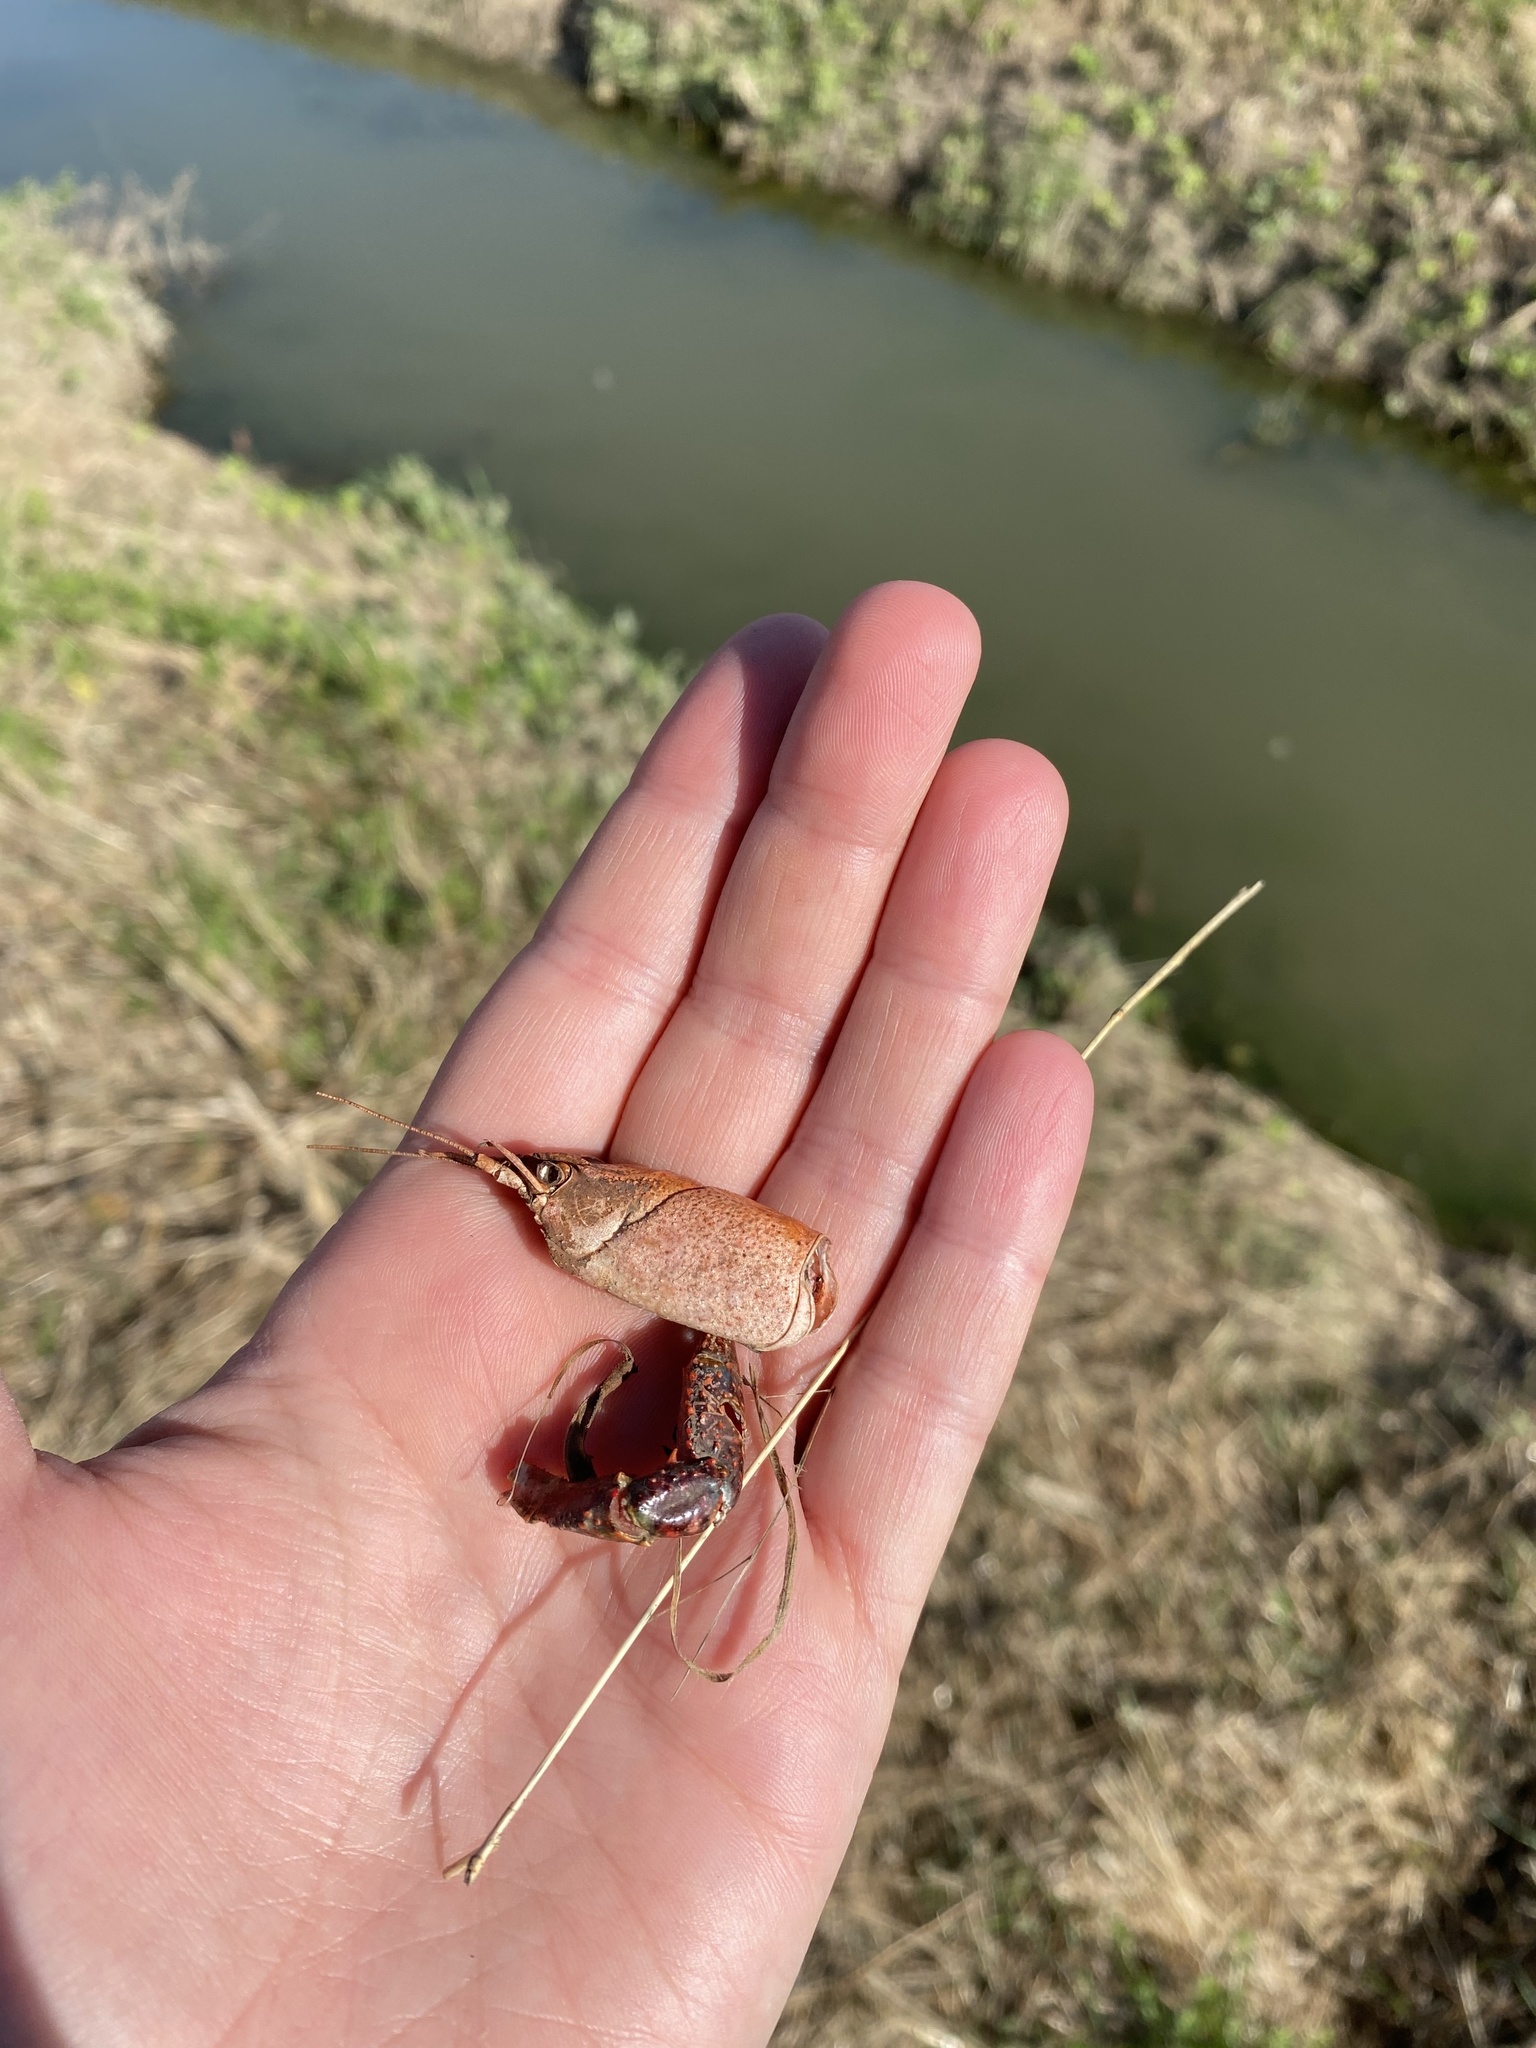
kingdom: Animalia
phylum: Arthropoda
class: Malacostraca
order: Decapoda
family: Cambaridae
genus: Procambarus
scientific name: Procambarus clarkii
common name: Red swamp crayfish
